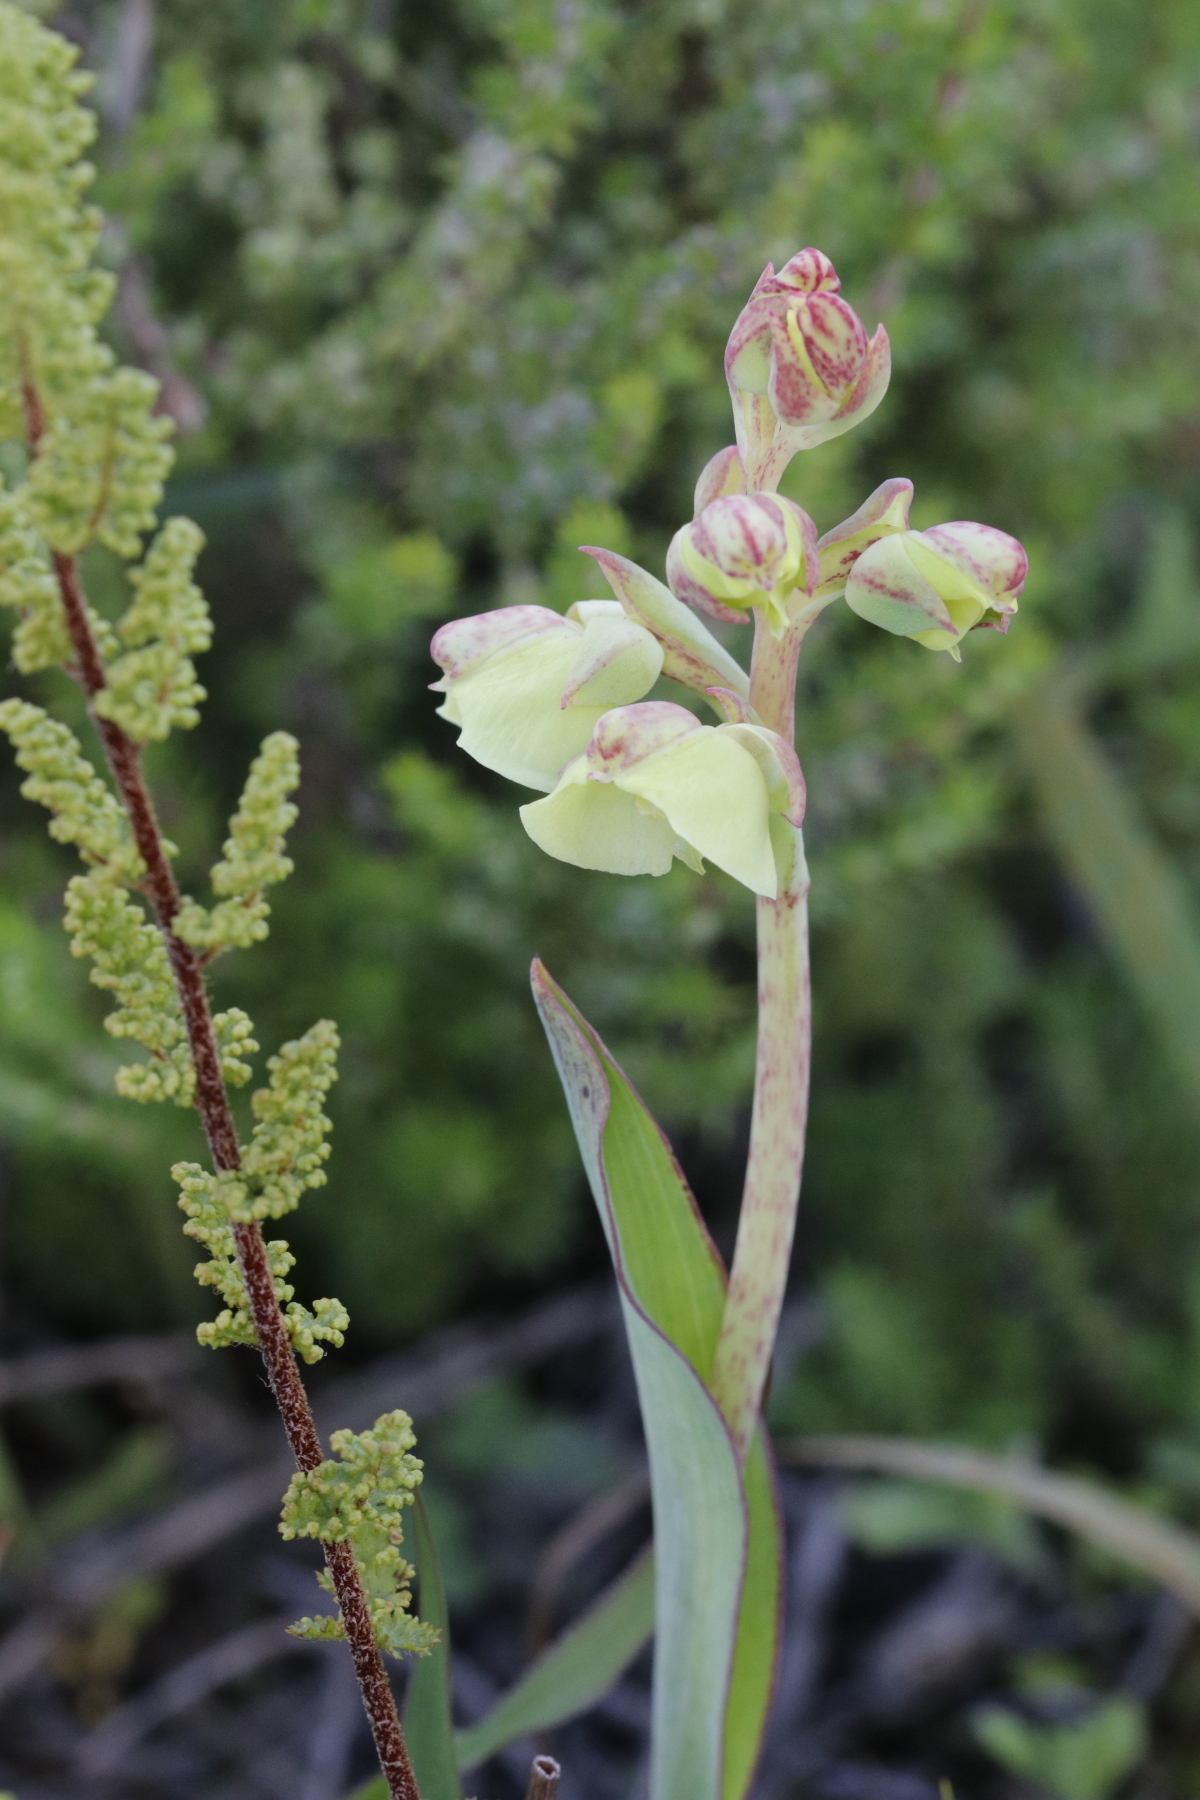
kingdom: Plantae
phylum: Tracheophyta
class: Liliopsida
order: Asparagales
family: Orchidaceae
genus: Pterygodium
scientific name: Pterygodium catholicum
